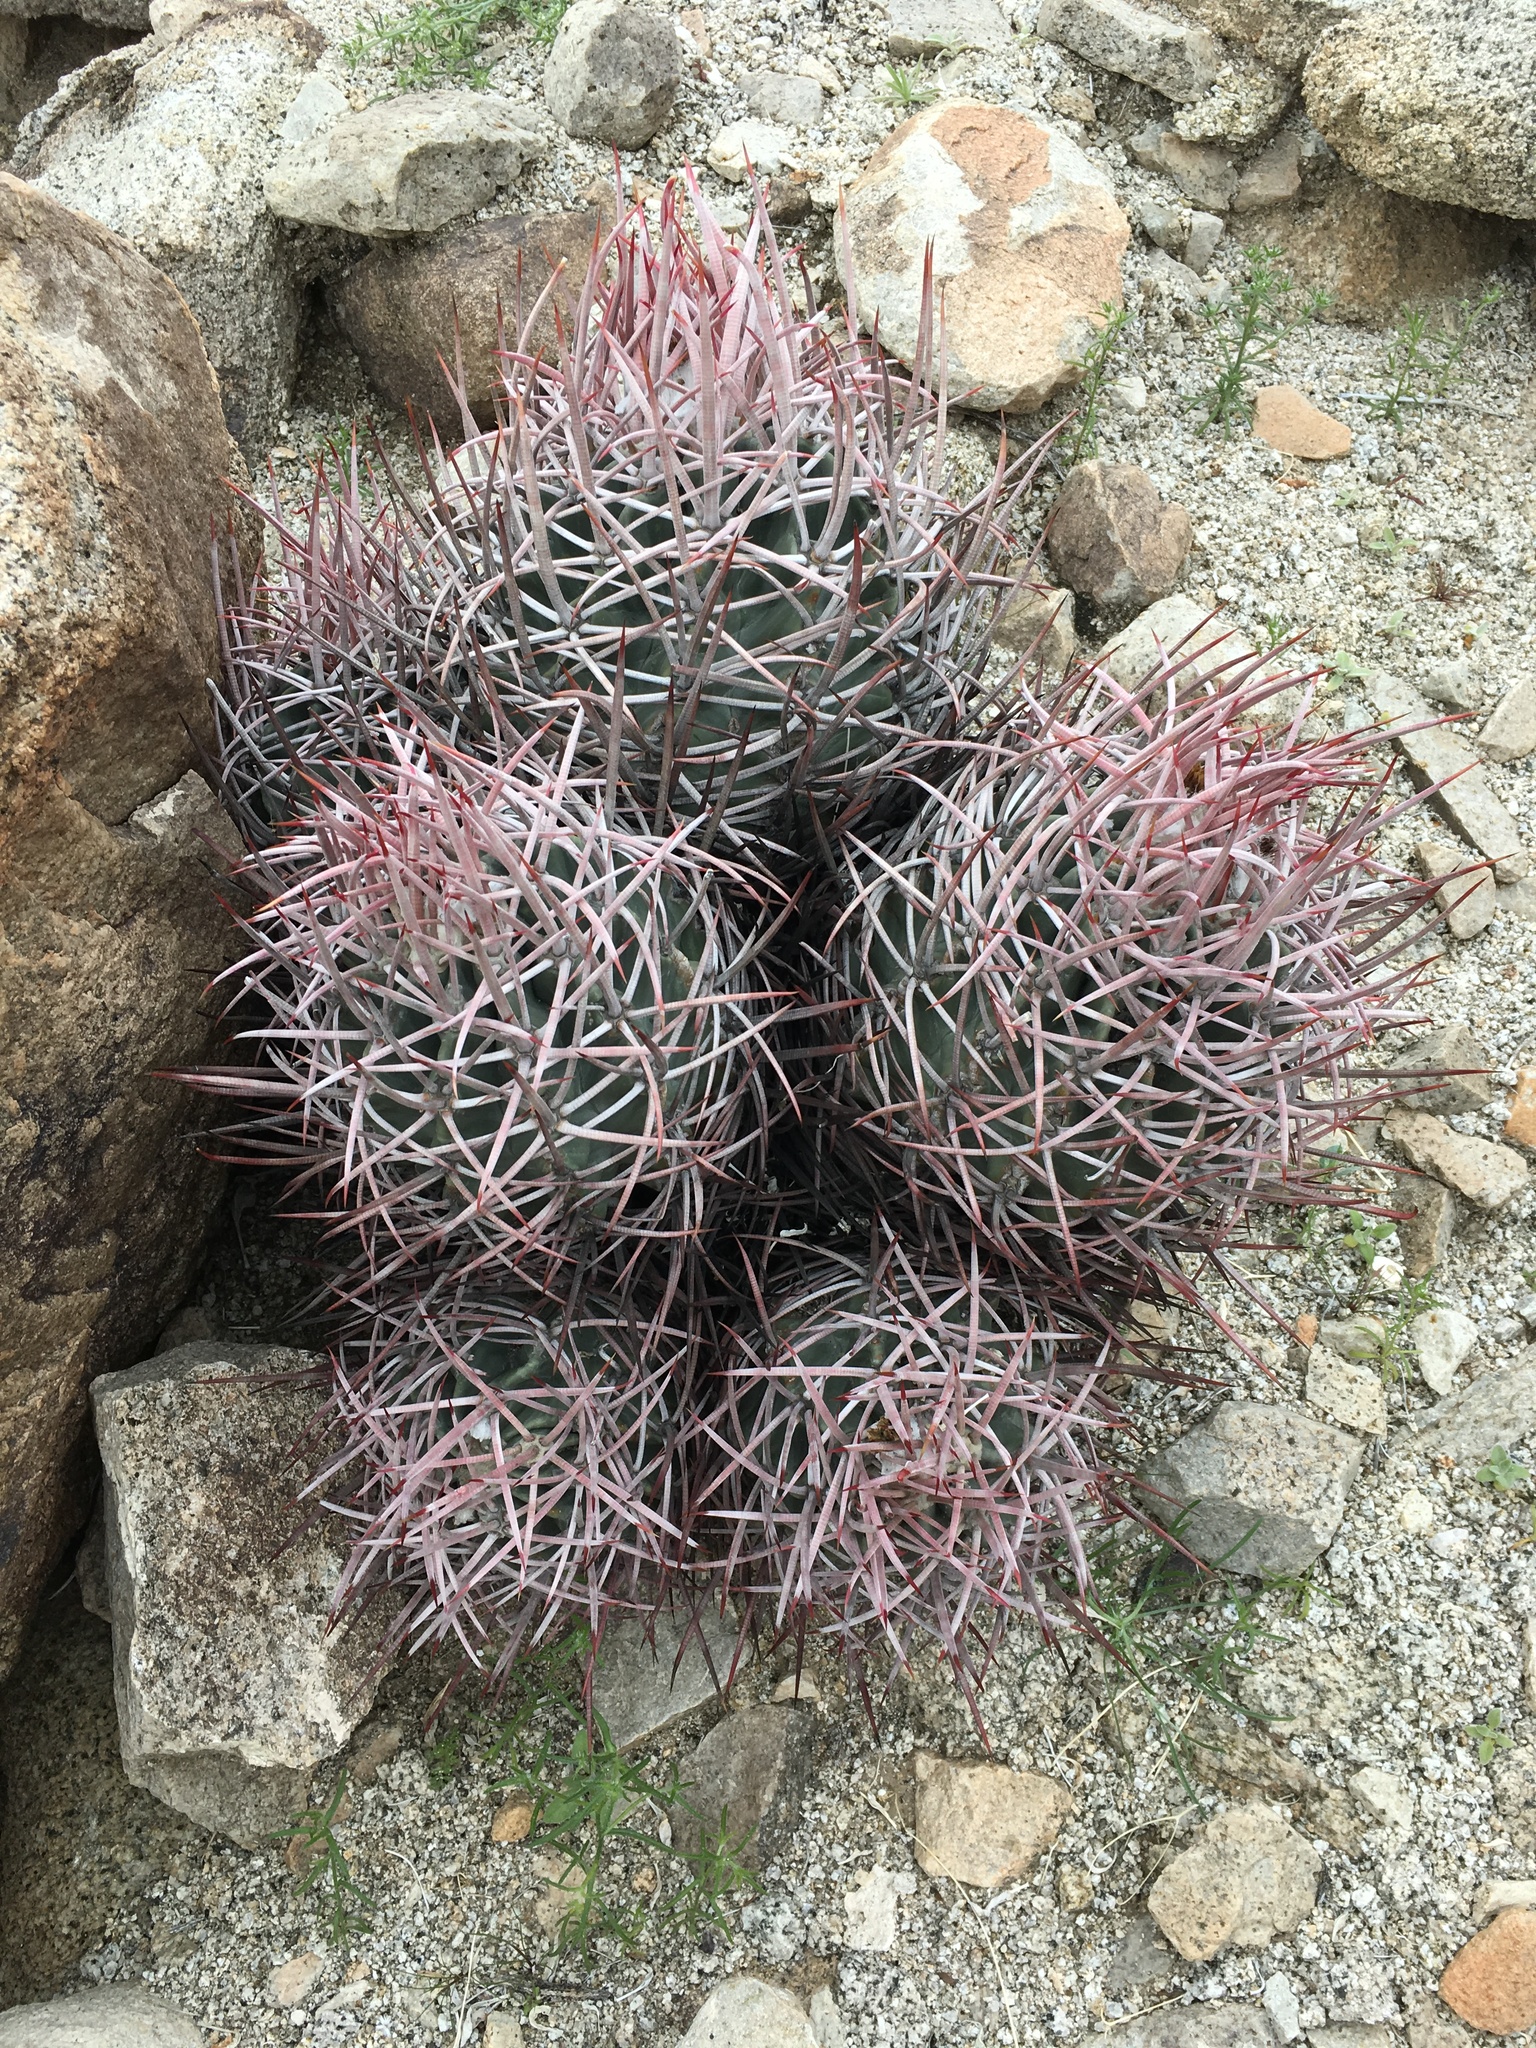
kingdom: Plantae
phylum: Tracheophyta
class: Magnoliopsida
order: Caryophyllales
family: Cactaceae
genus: Echinocactus
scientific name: Echinocactus polycephalus
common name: Cottontop cactus
